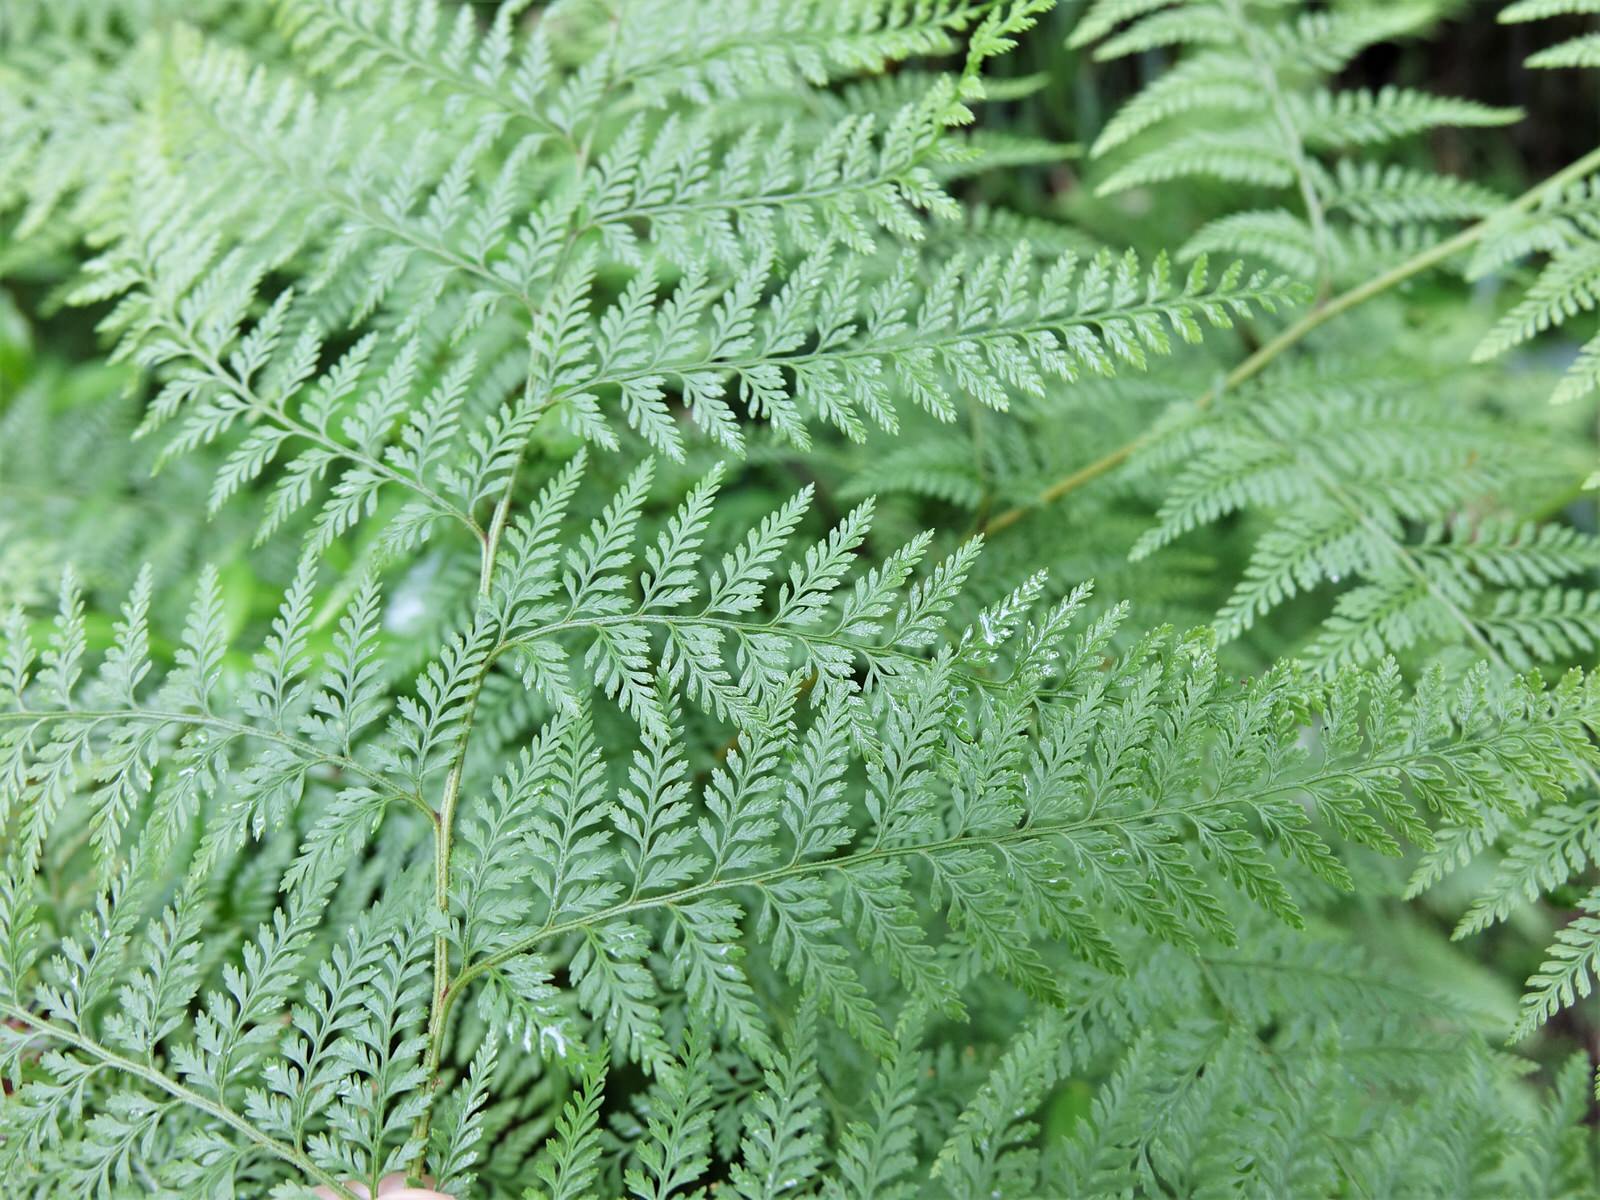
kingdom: Plantae
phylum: Tracheophyta
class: Polypodiopsida
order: Polypodiales
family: Dennstaedtiaceae
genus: Paesia
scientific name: Paesia scaberula
